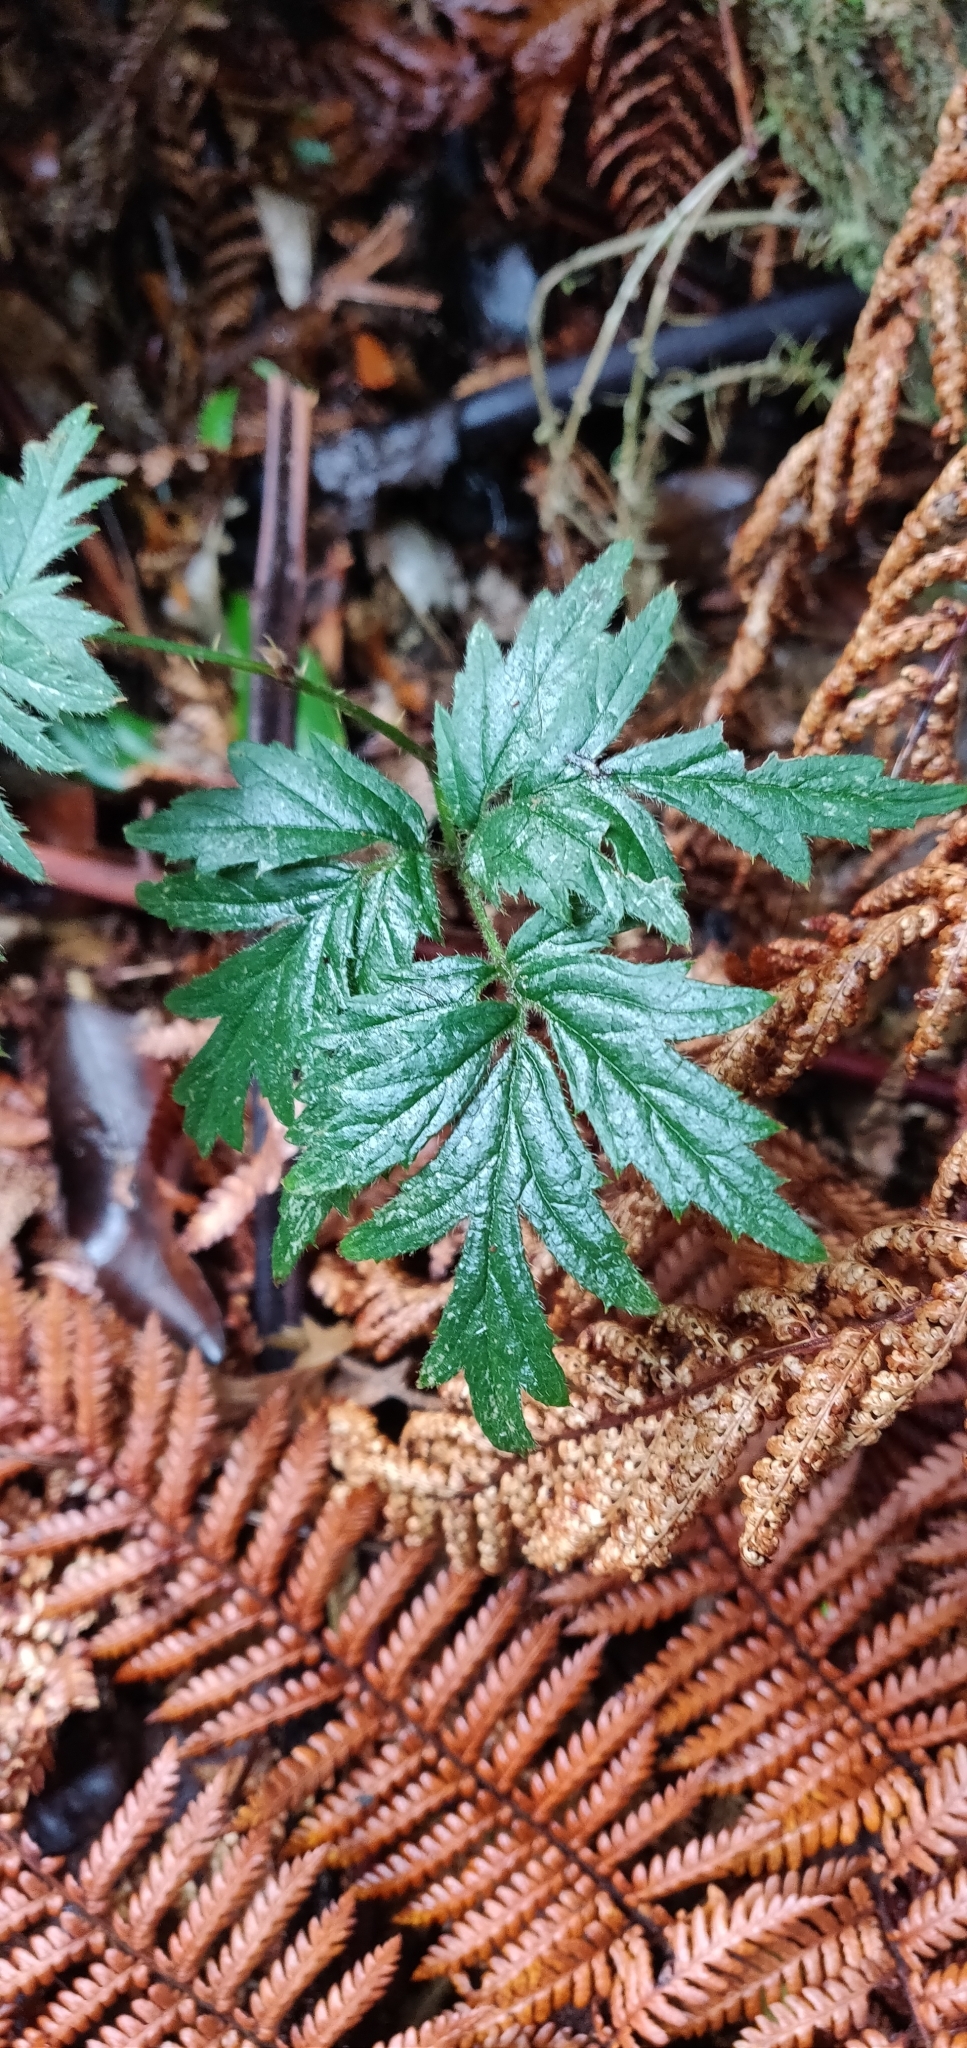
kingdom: Plantae
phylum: Tracheophyta
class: Magnoliopsida
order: Rosales
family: Rosaceae
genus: Rubus
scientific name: Rubus laciniatus
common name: Evergreen blackberry
